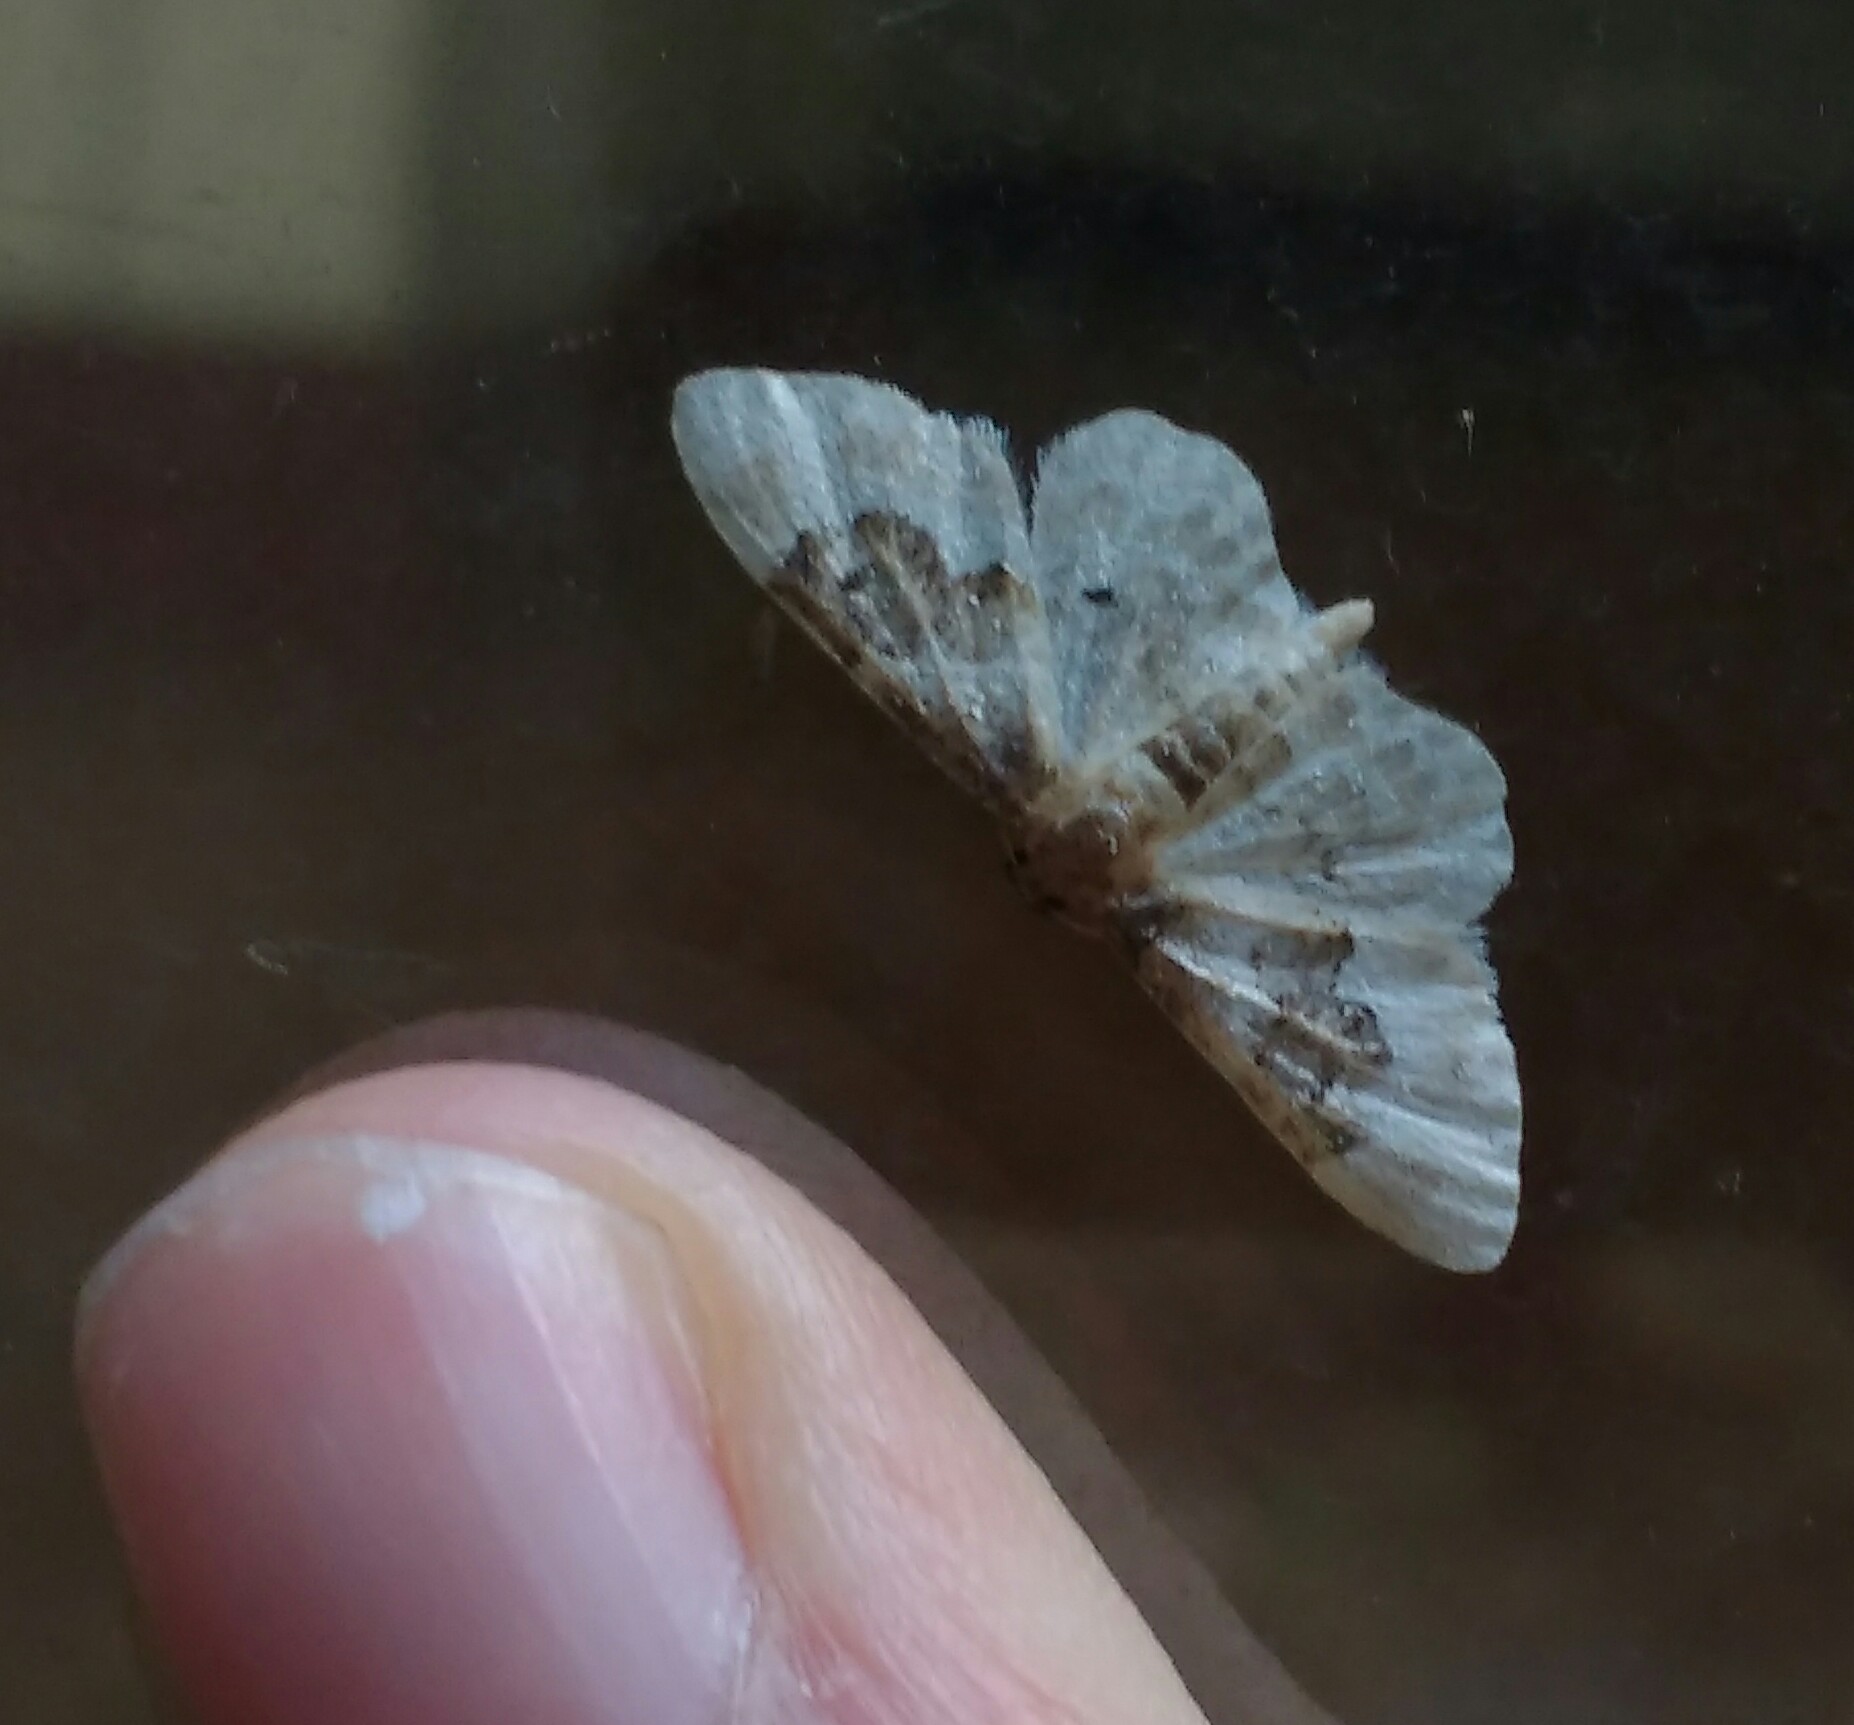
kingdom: Animalia
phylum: Arthropoda
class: Insecta
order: Lepidoptera
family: Geometridae
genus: Idaea
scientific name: Idaea rusticata
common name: Least carpet
